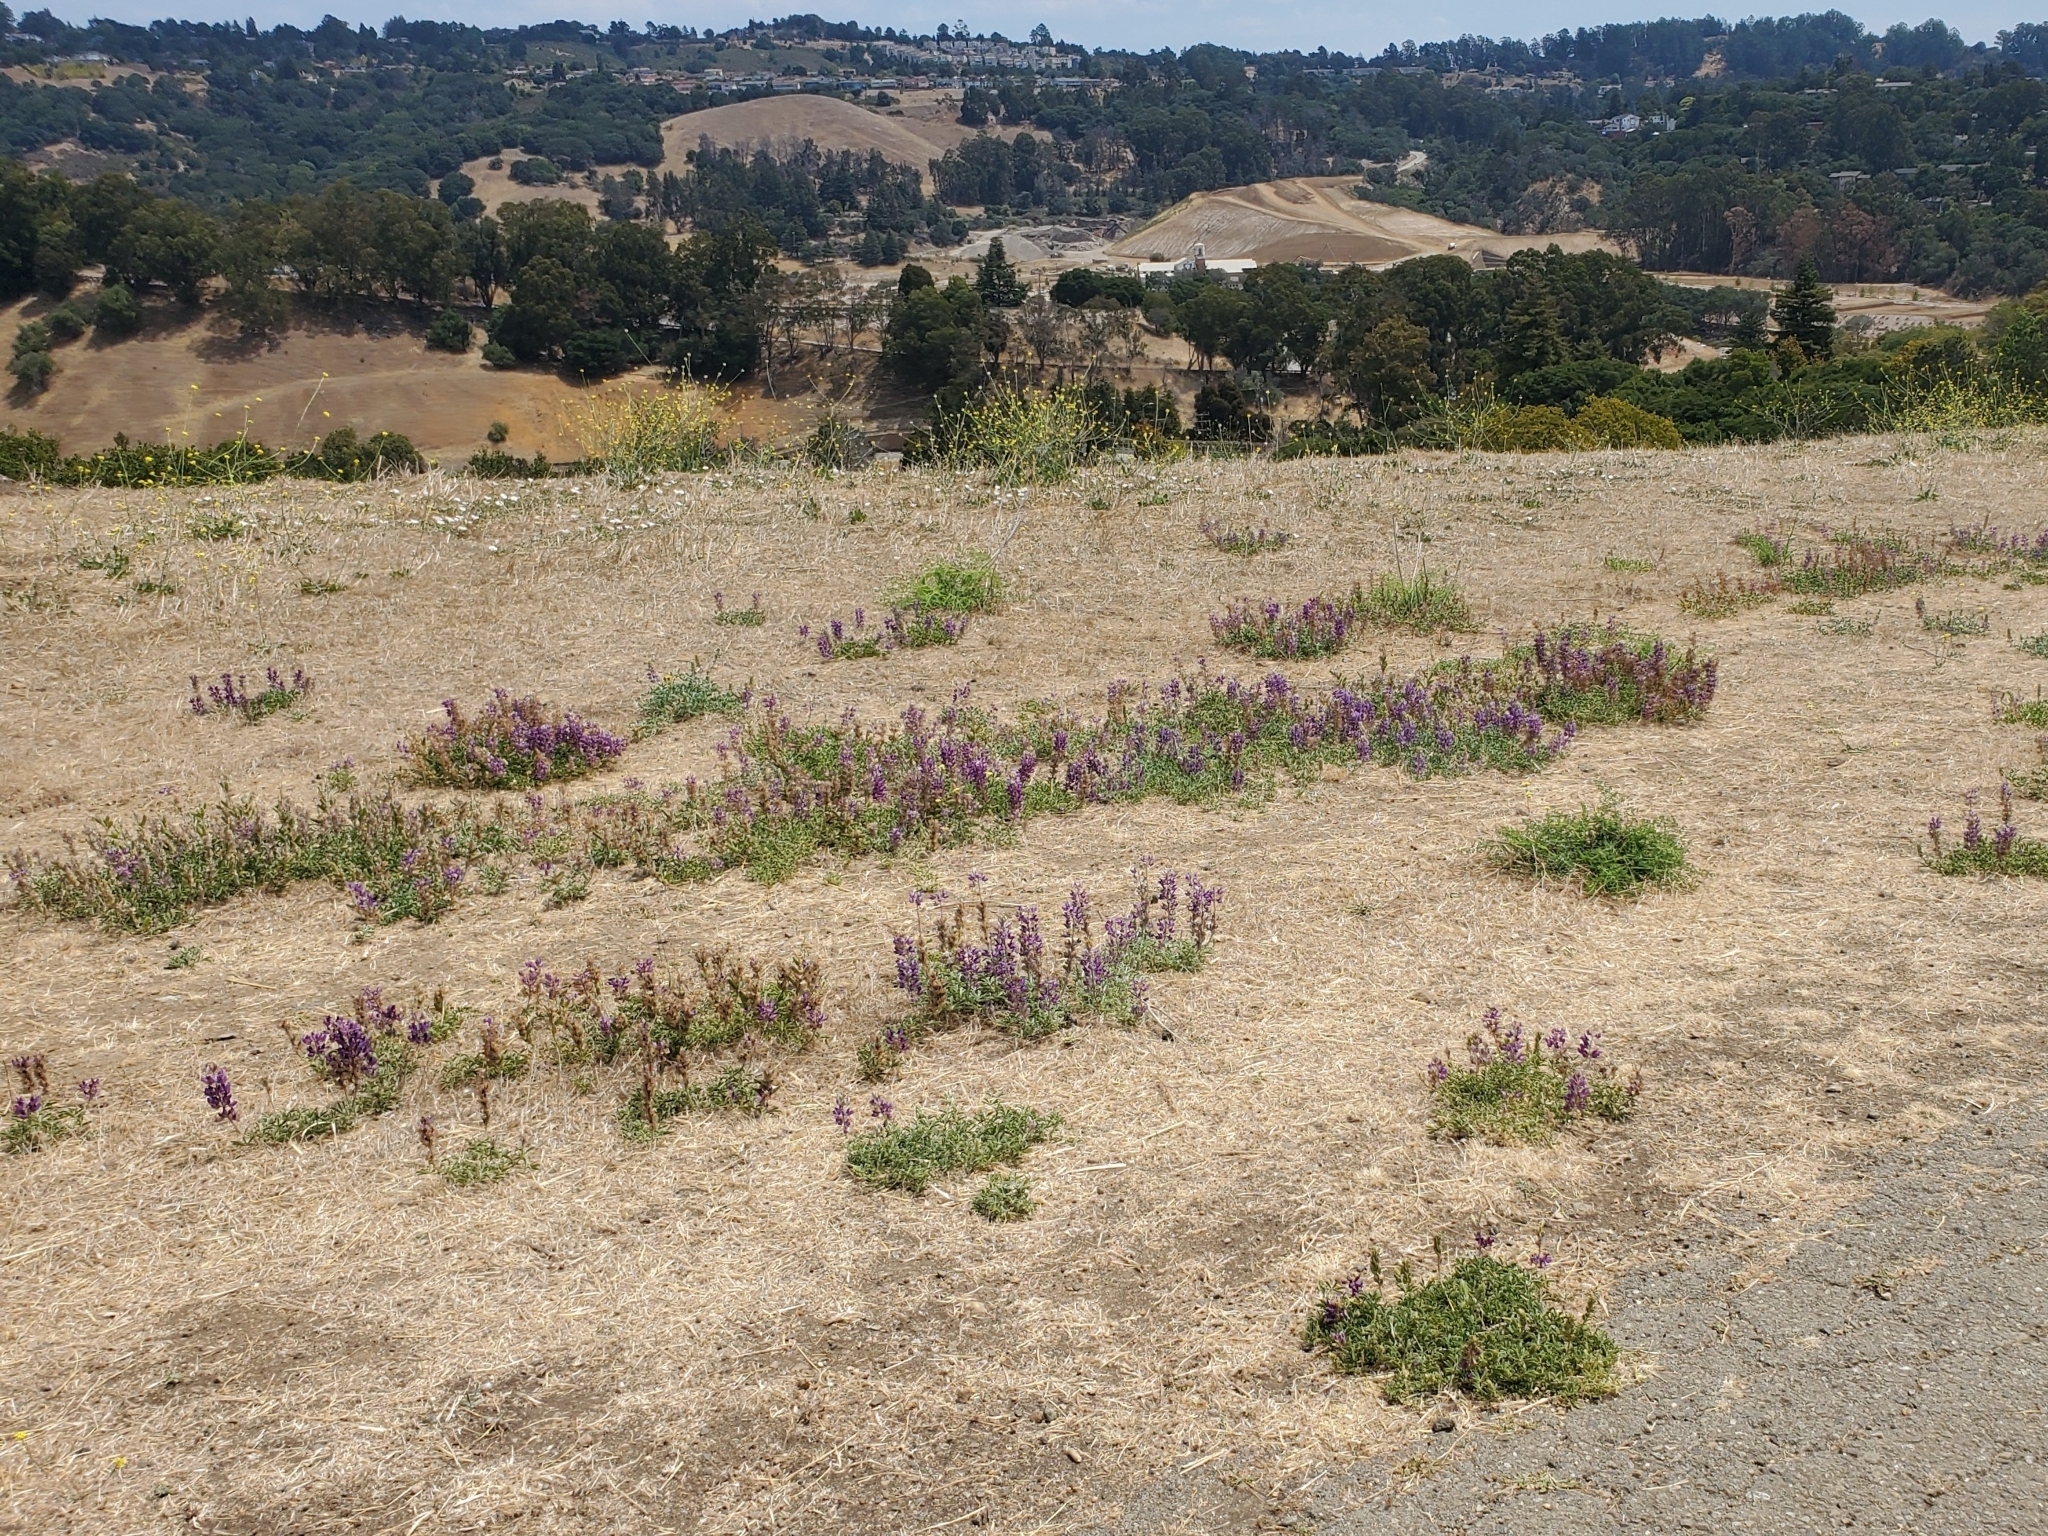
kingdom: Plantae
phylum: Tracheophyta
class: Magnoliopsida
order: Fabales
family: Fabaceae
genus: Lupinus
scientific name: Lupinus formosus
